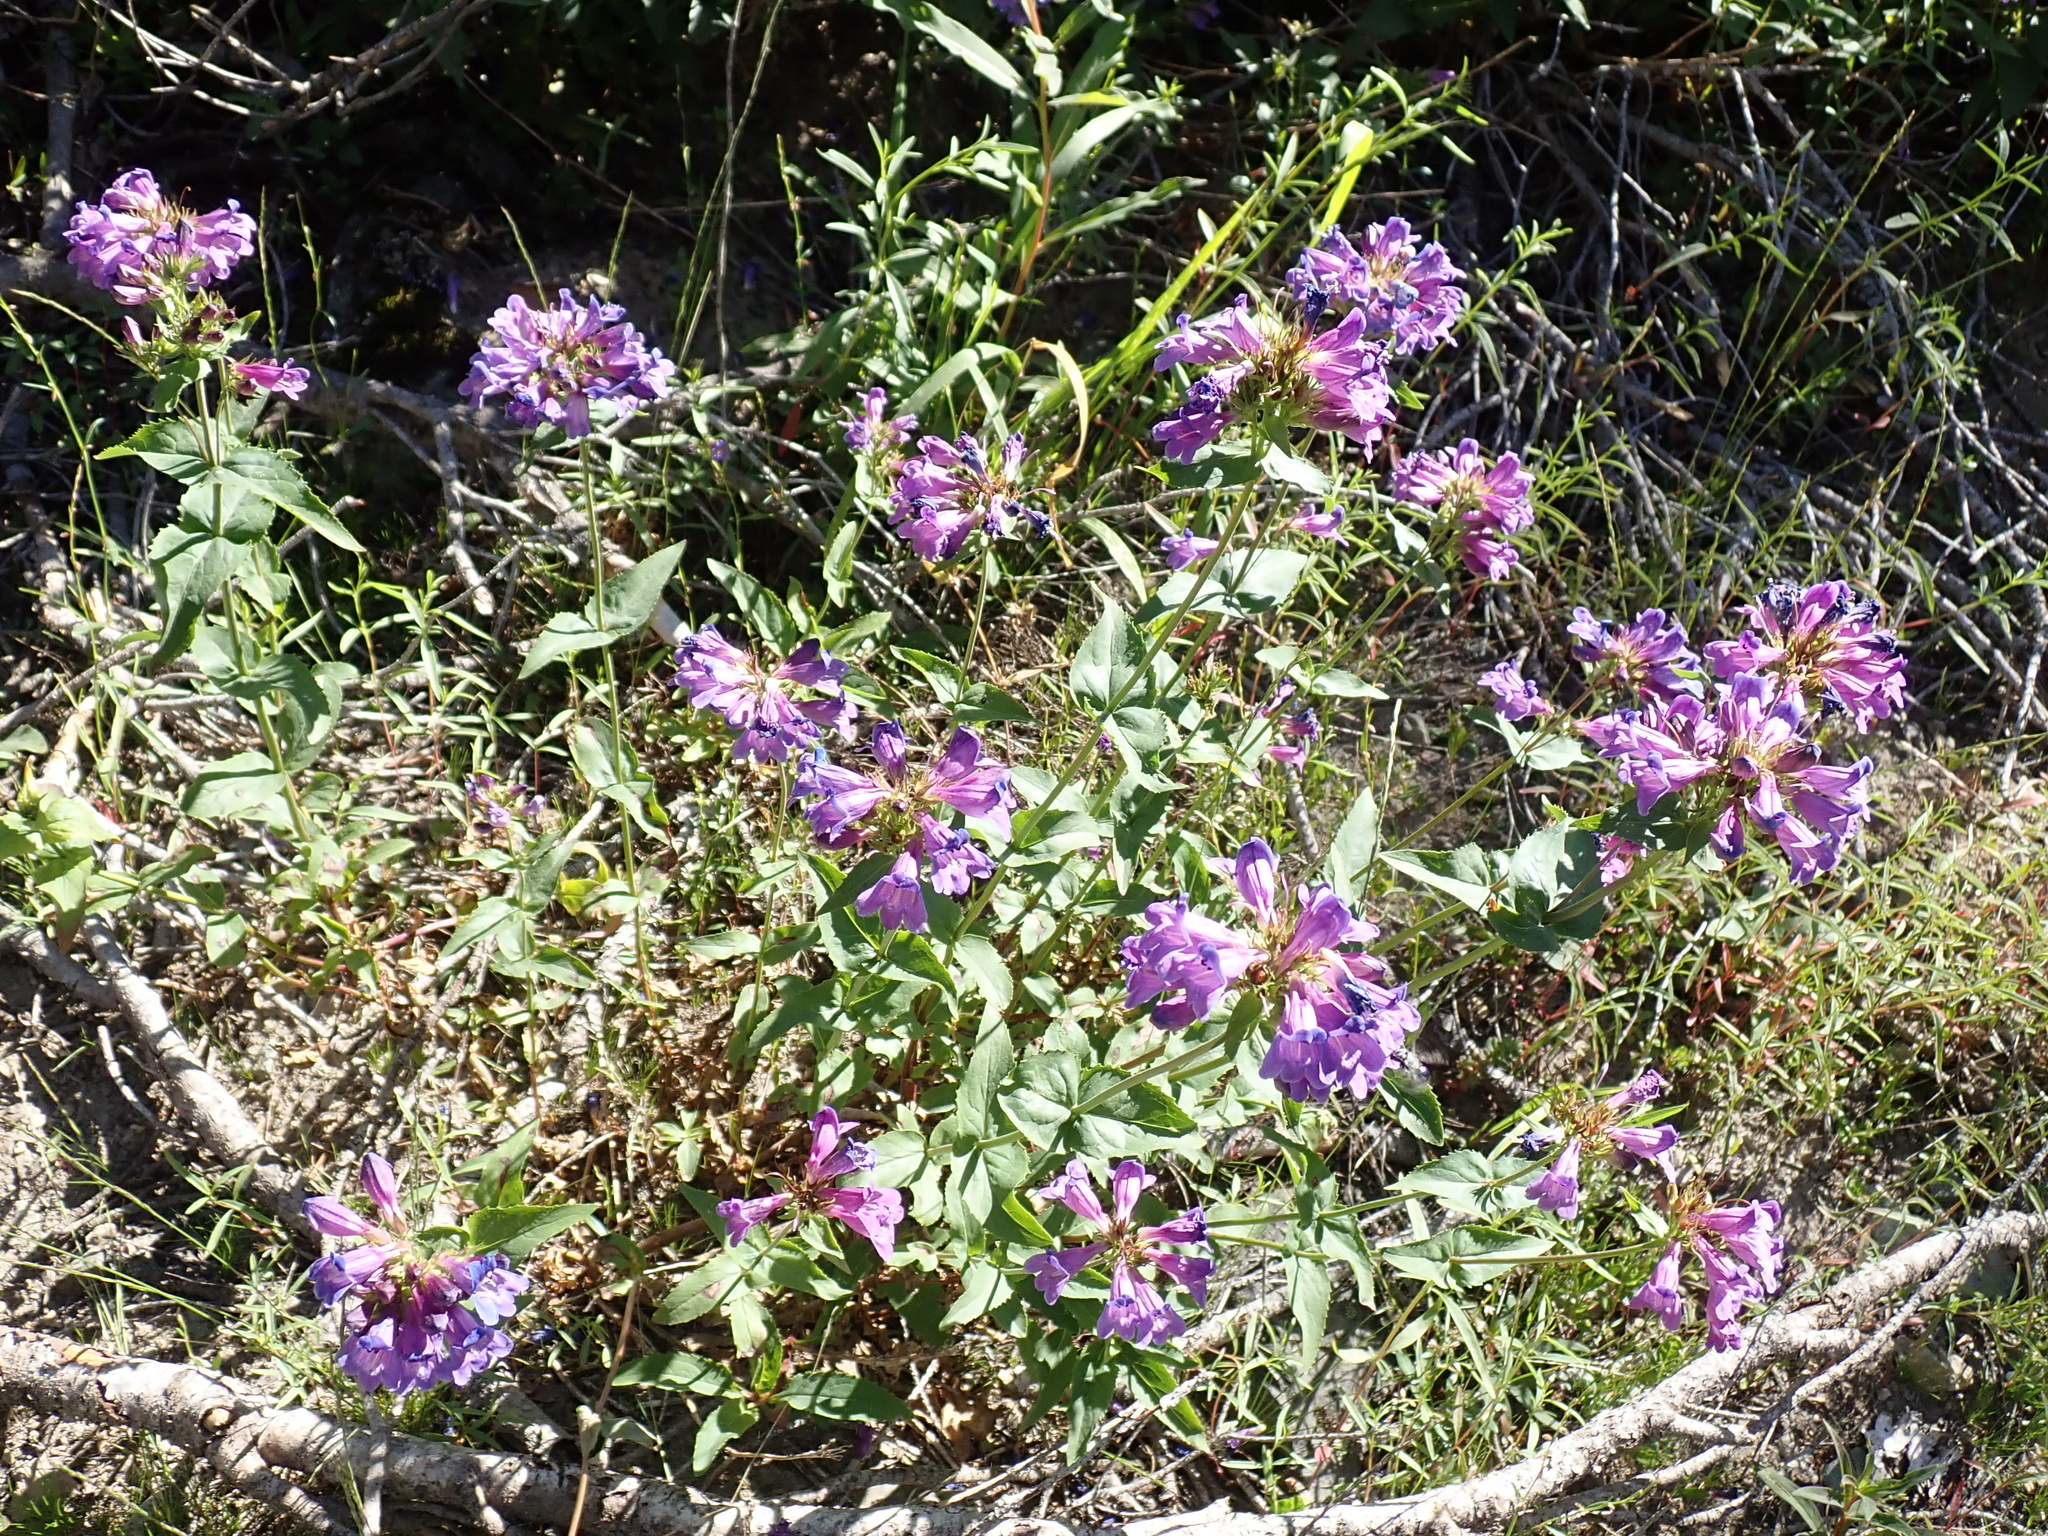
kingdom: Plantae
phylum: Tracheophyta
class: Magnoliopsida
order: Lamiales
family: Plantaginaceae
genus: Penstemon
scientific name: Penstemon serrulatus
